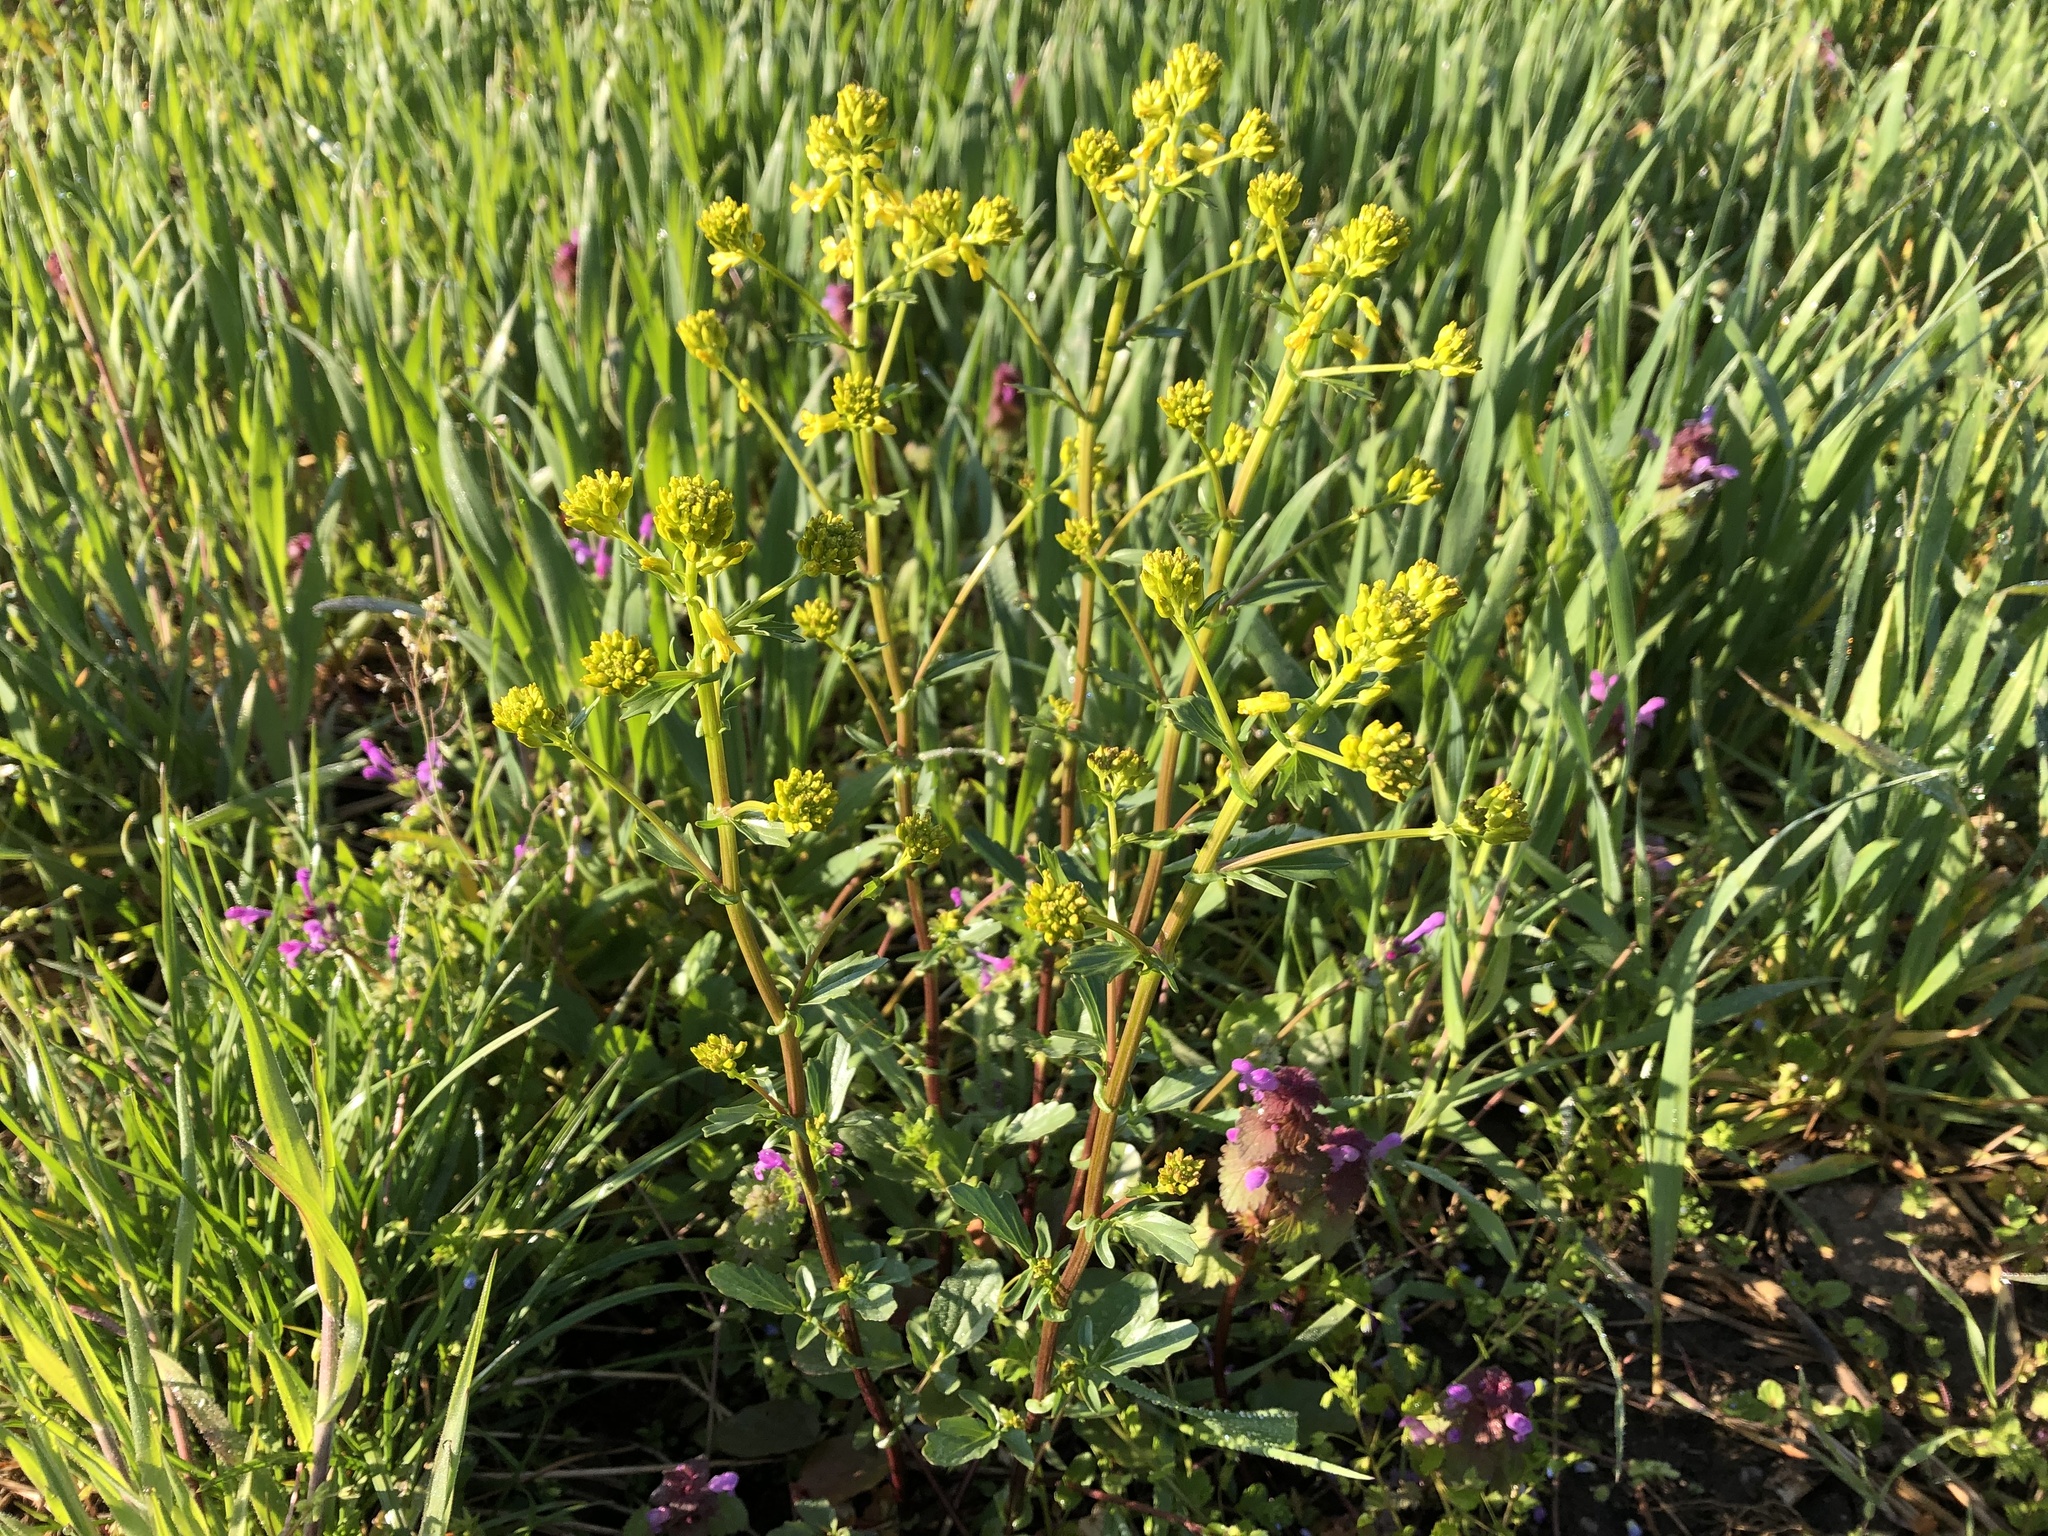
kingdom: Plantae
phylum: Tracheophyta
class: Magnoliopsida
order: Brassicales
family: Brassicaceae
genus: Barbarea
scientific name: Barbarea vulgaris
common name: Cressy-greens
